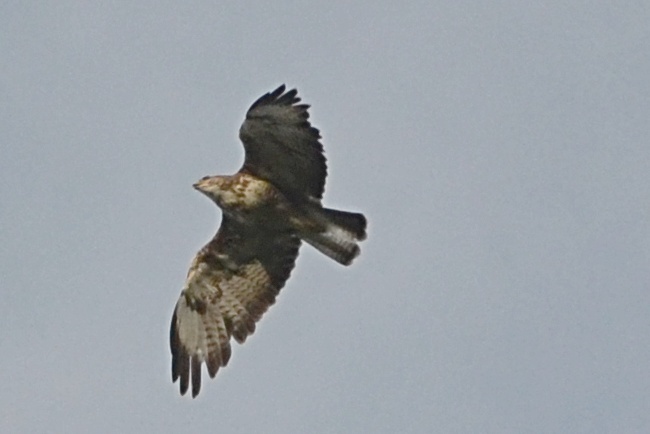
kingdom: Animalia
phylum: Chordata
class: Aves
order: Accipitriformes
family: Accipitridae
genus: Buteo
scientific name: Buteo buteo
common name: Common buzzard
